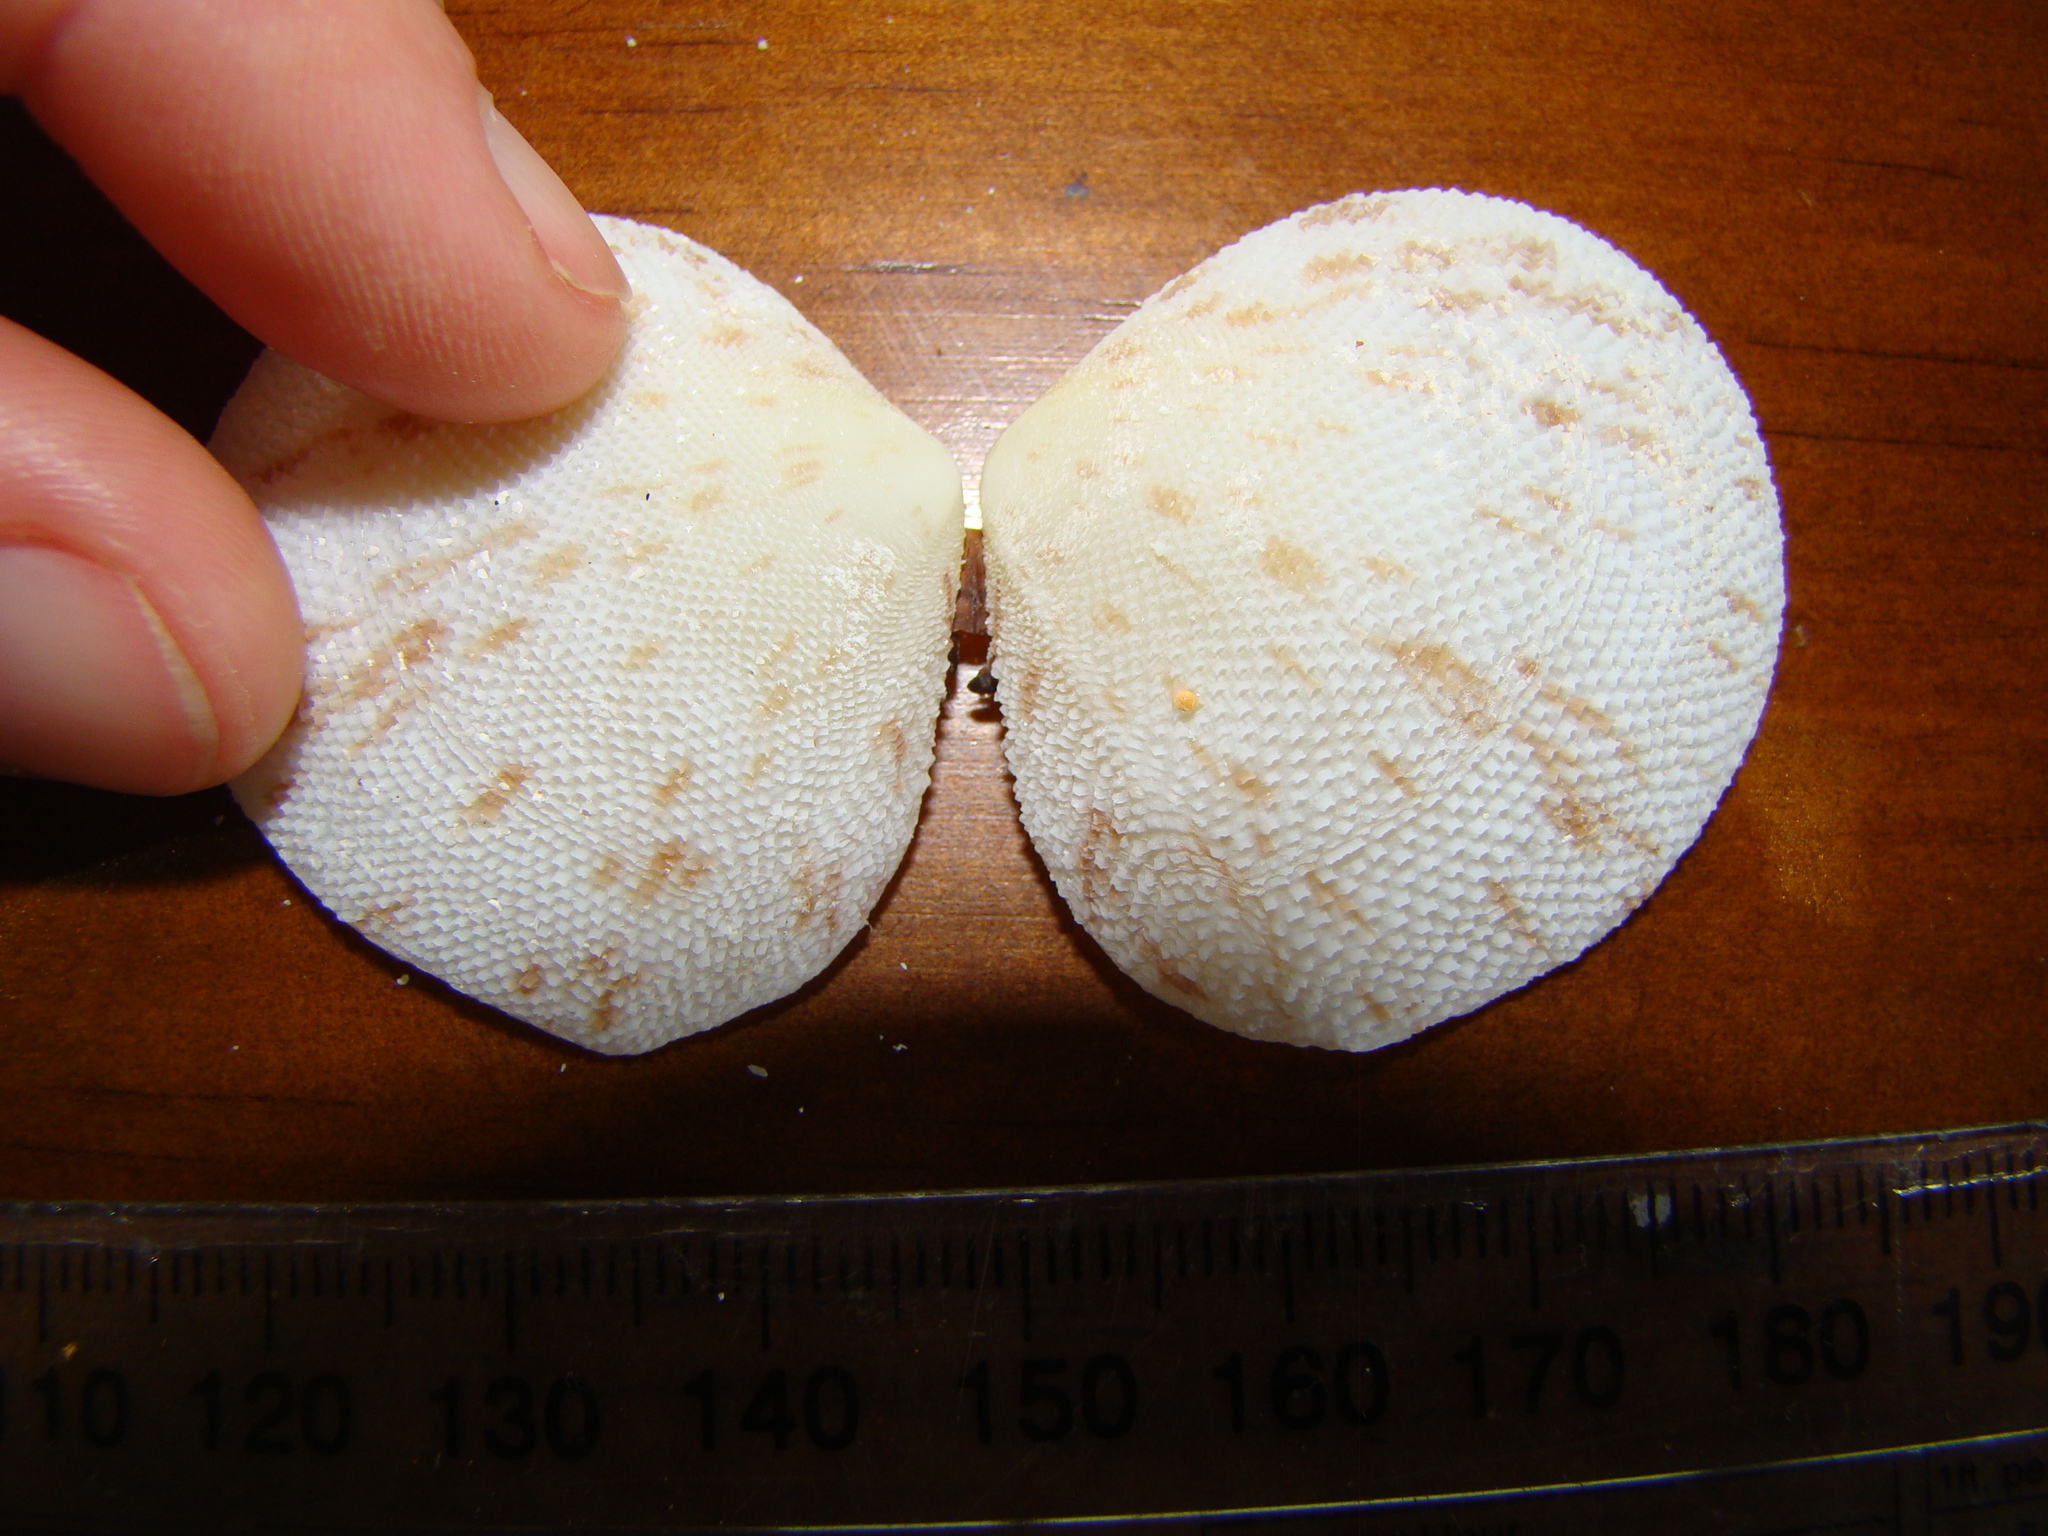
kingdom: Animalia
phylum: Mollusca
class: Bivalvia
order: Cardiida
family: Tellinidae
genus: Scutarcopagia
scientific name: Scutarcopagia scobinata
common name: Rasp tellin
